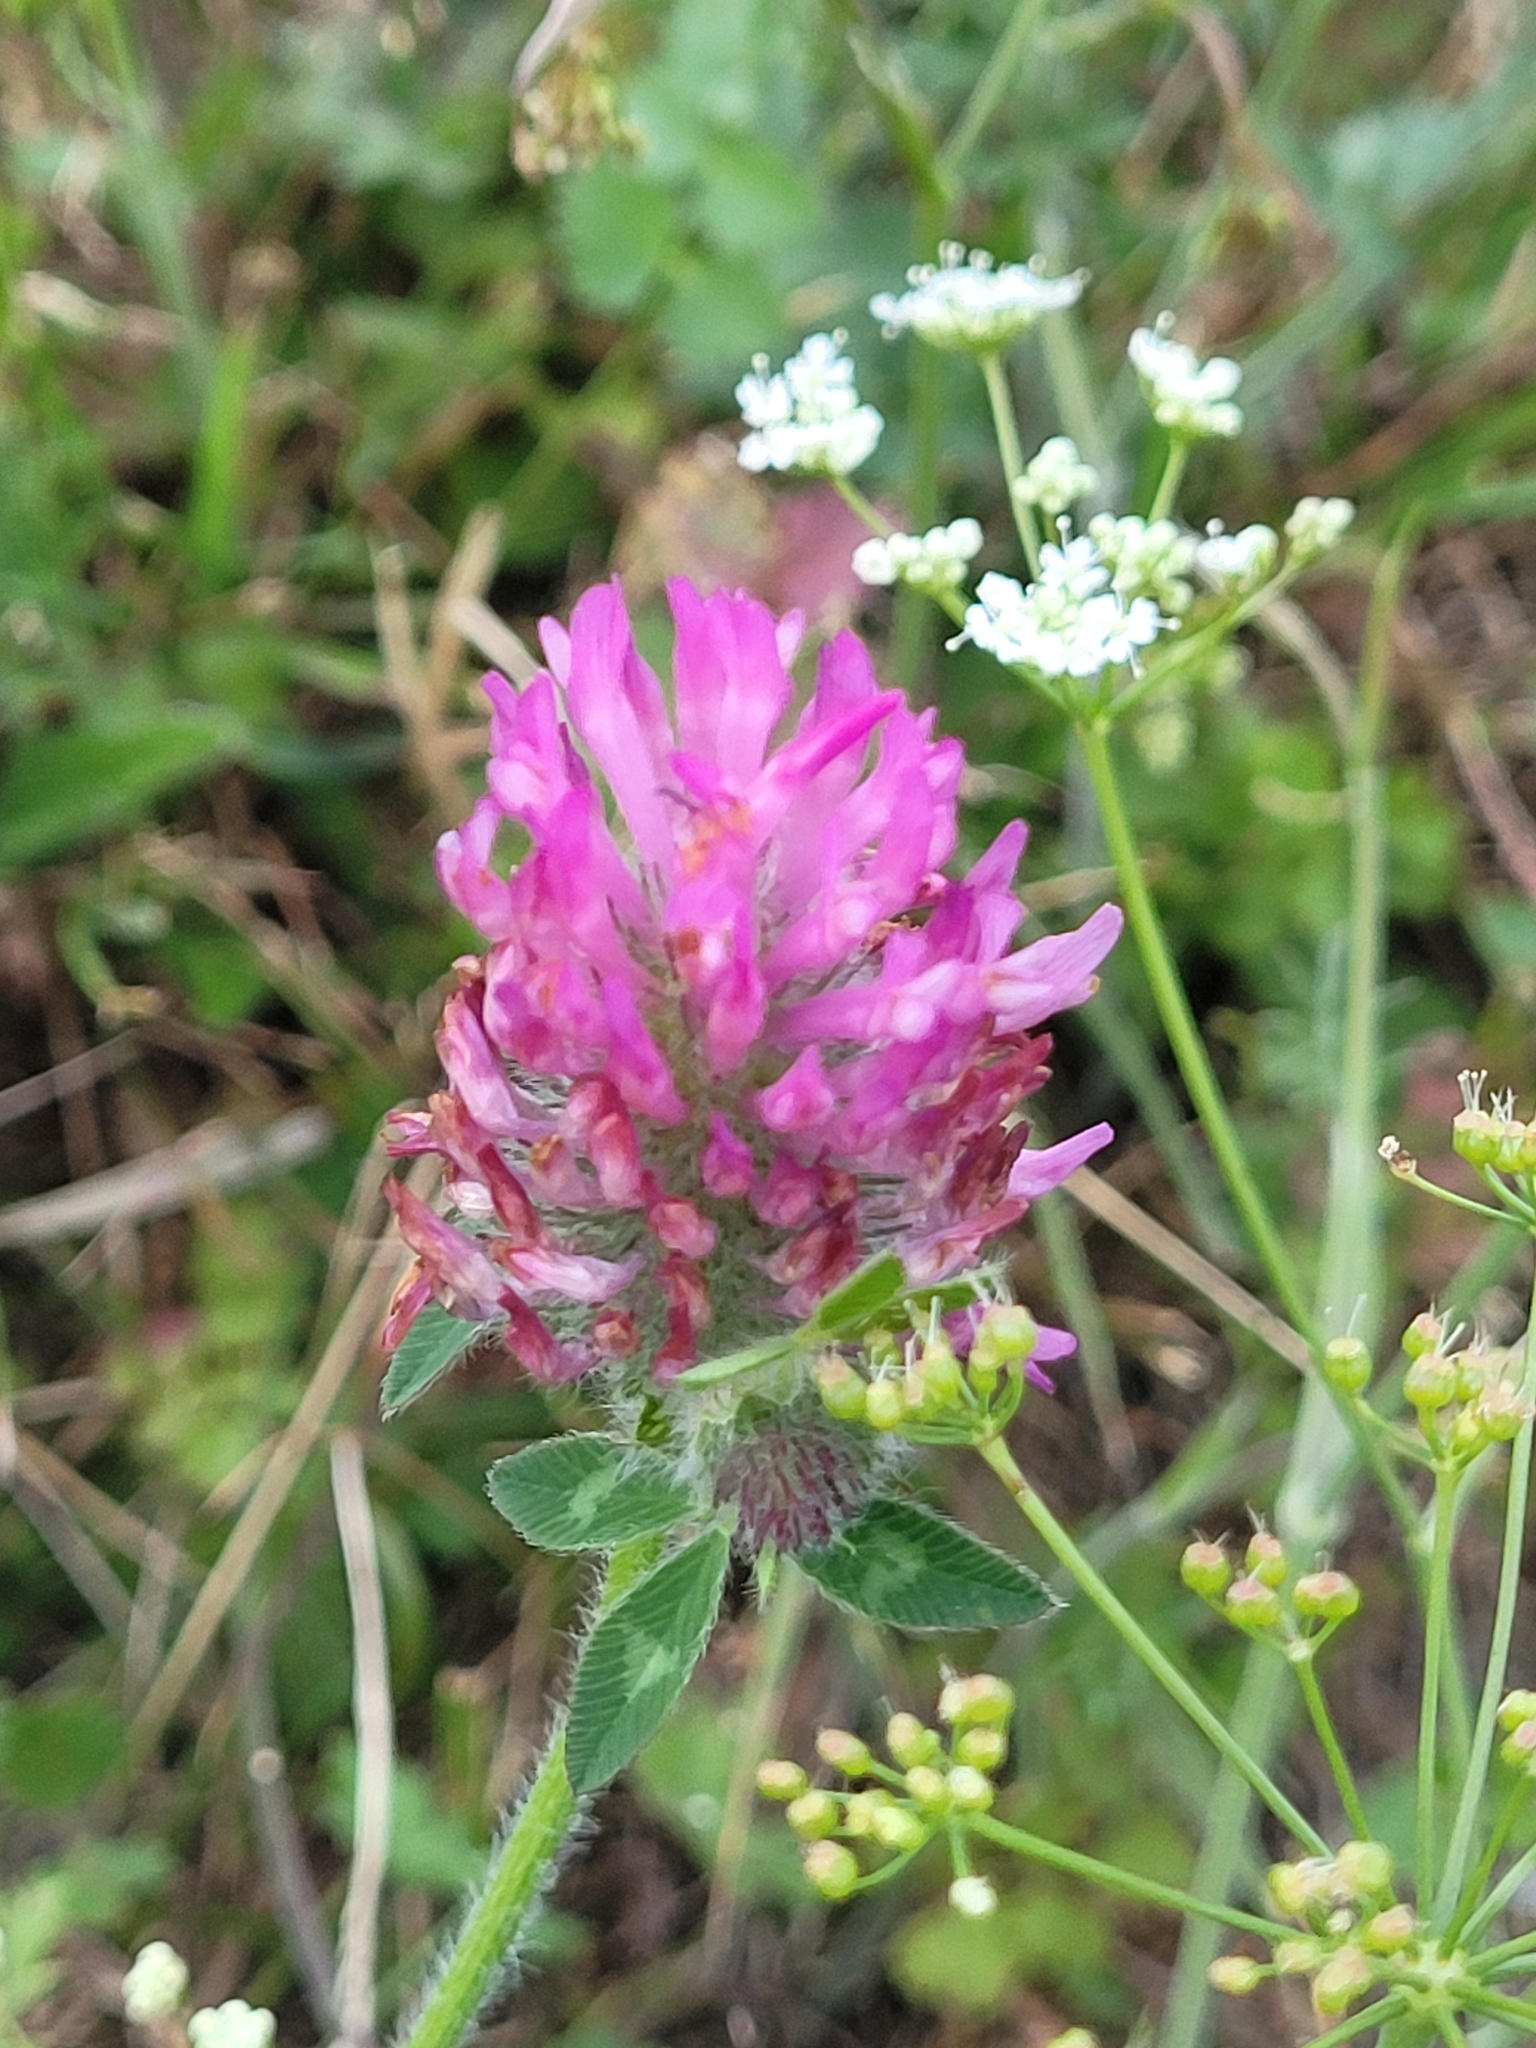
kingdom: Plantae
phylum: Tracheophyta
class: Magnoliopsida
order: Fabales
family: Fabaceae
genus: Trifolium
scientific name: Trifolium pratense
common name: Red clover
